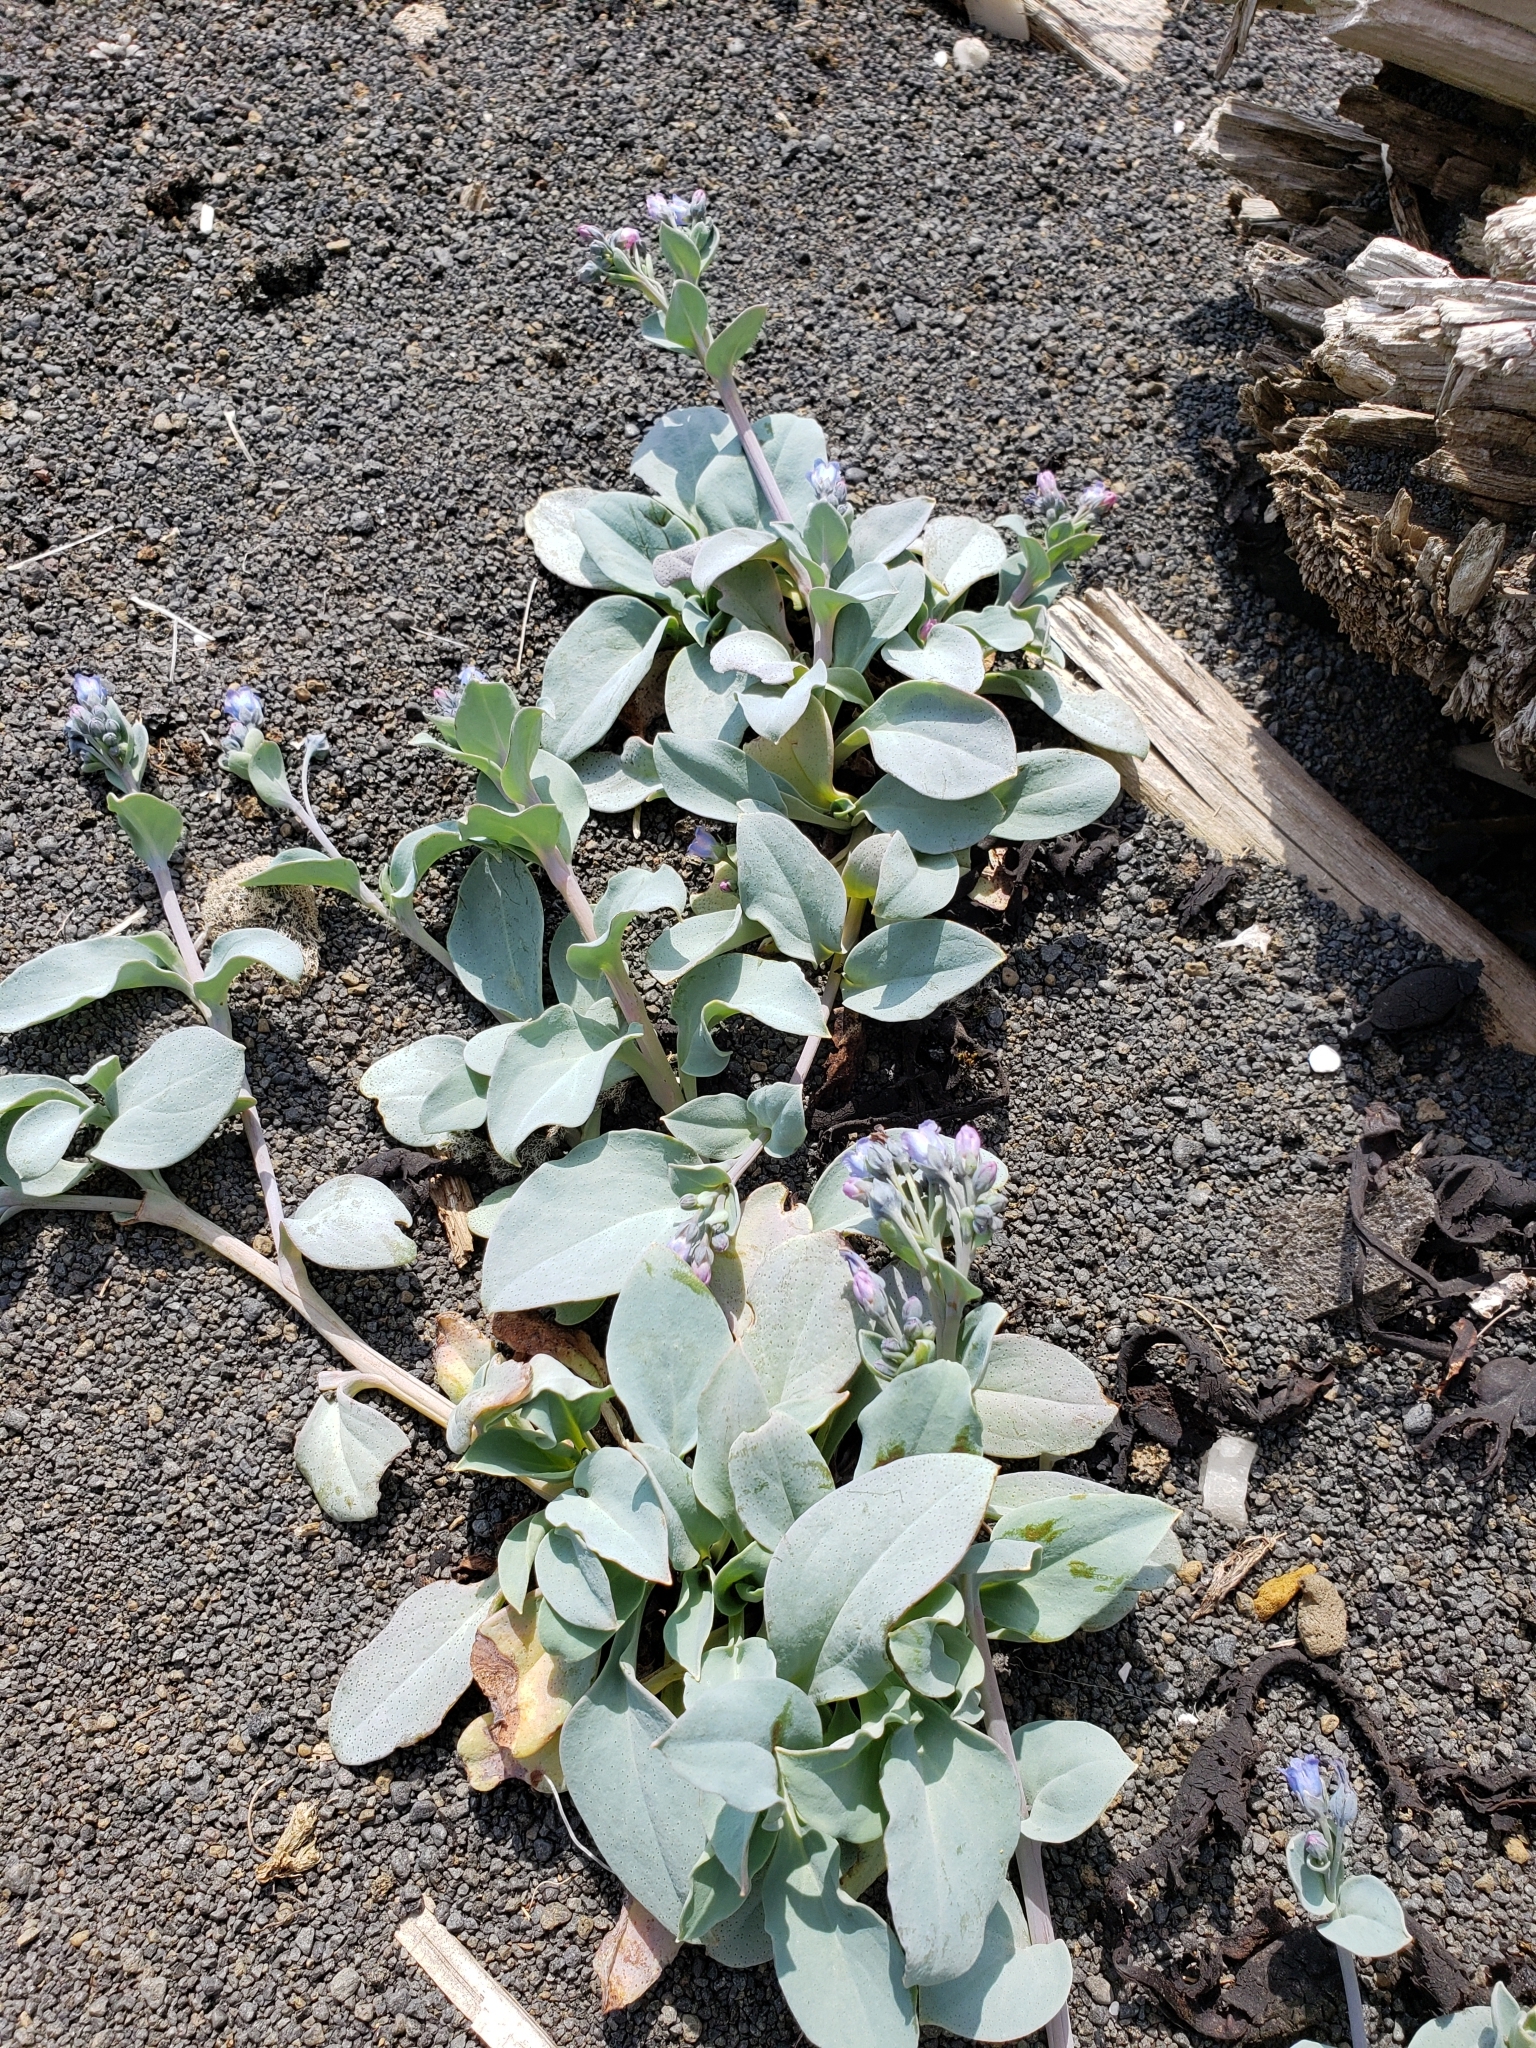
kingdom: Plantae
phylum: Tracheophyta
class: Magnoliopsida
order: Boraginales
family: Boraginaceae
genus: Mertensia
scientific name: Mertensia maritima
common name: Oysterplant
